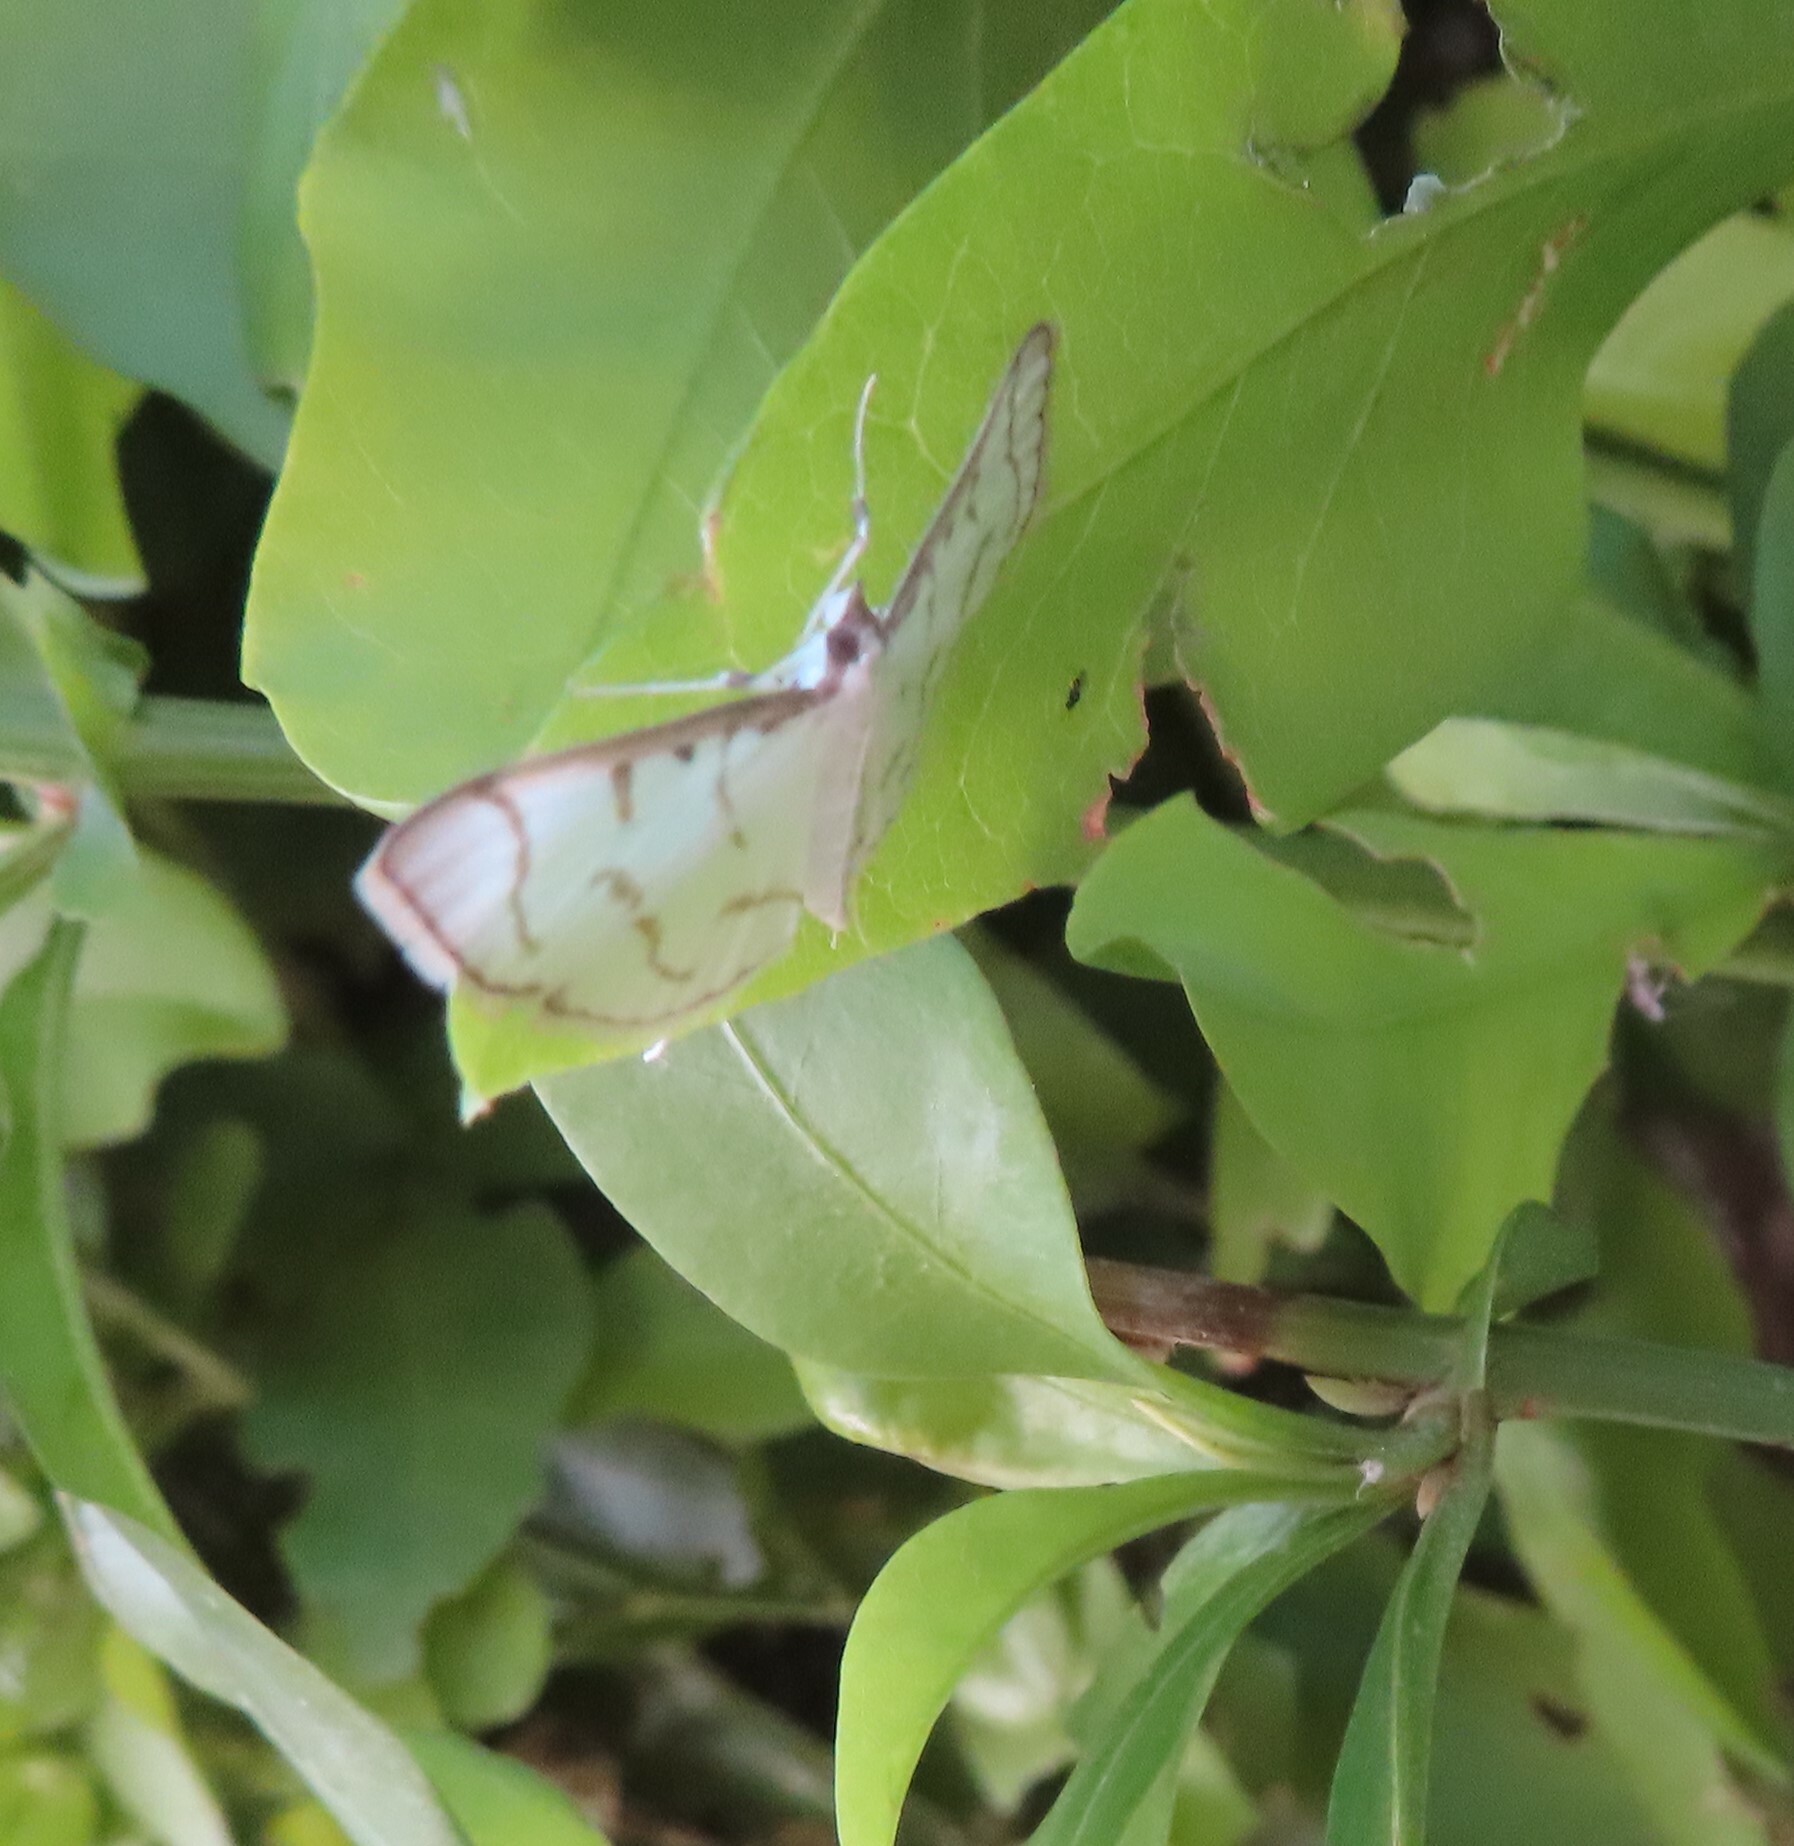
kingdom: Animalia
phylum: Arthropoda
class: Insecta
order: Lepidoptera
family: Crambidae
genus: Antigastra
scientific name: Antigastra morysalis
